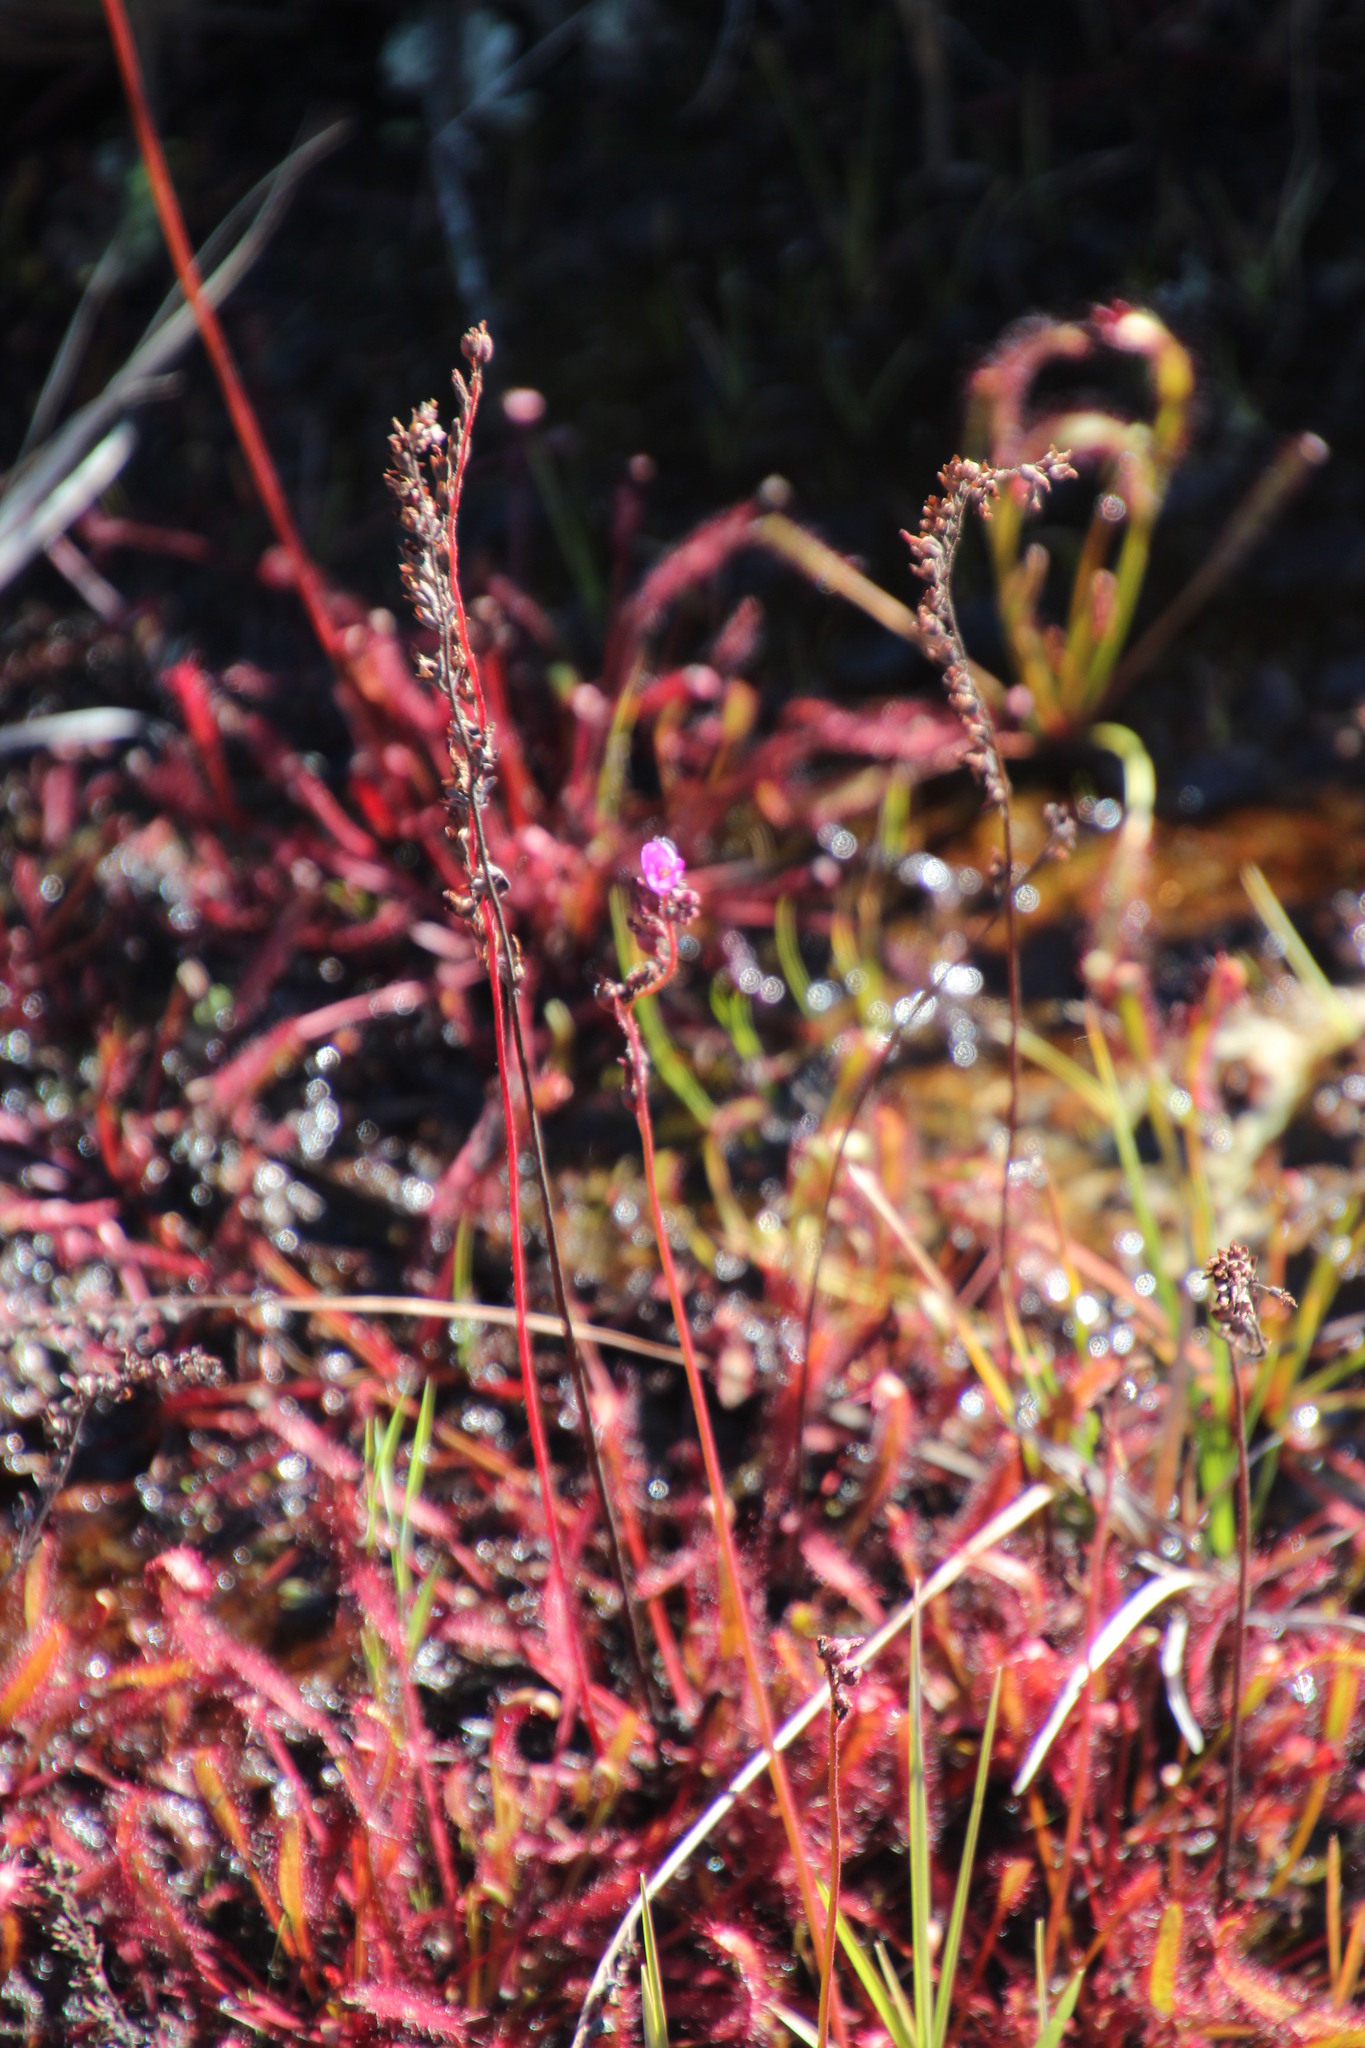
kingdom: Plantae
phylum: Tracheophyta
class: Magnoliopsida
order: Caryophyllales
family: Droseraceae
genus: Drosera
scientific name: Drosera capensis
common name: Cape sundew
